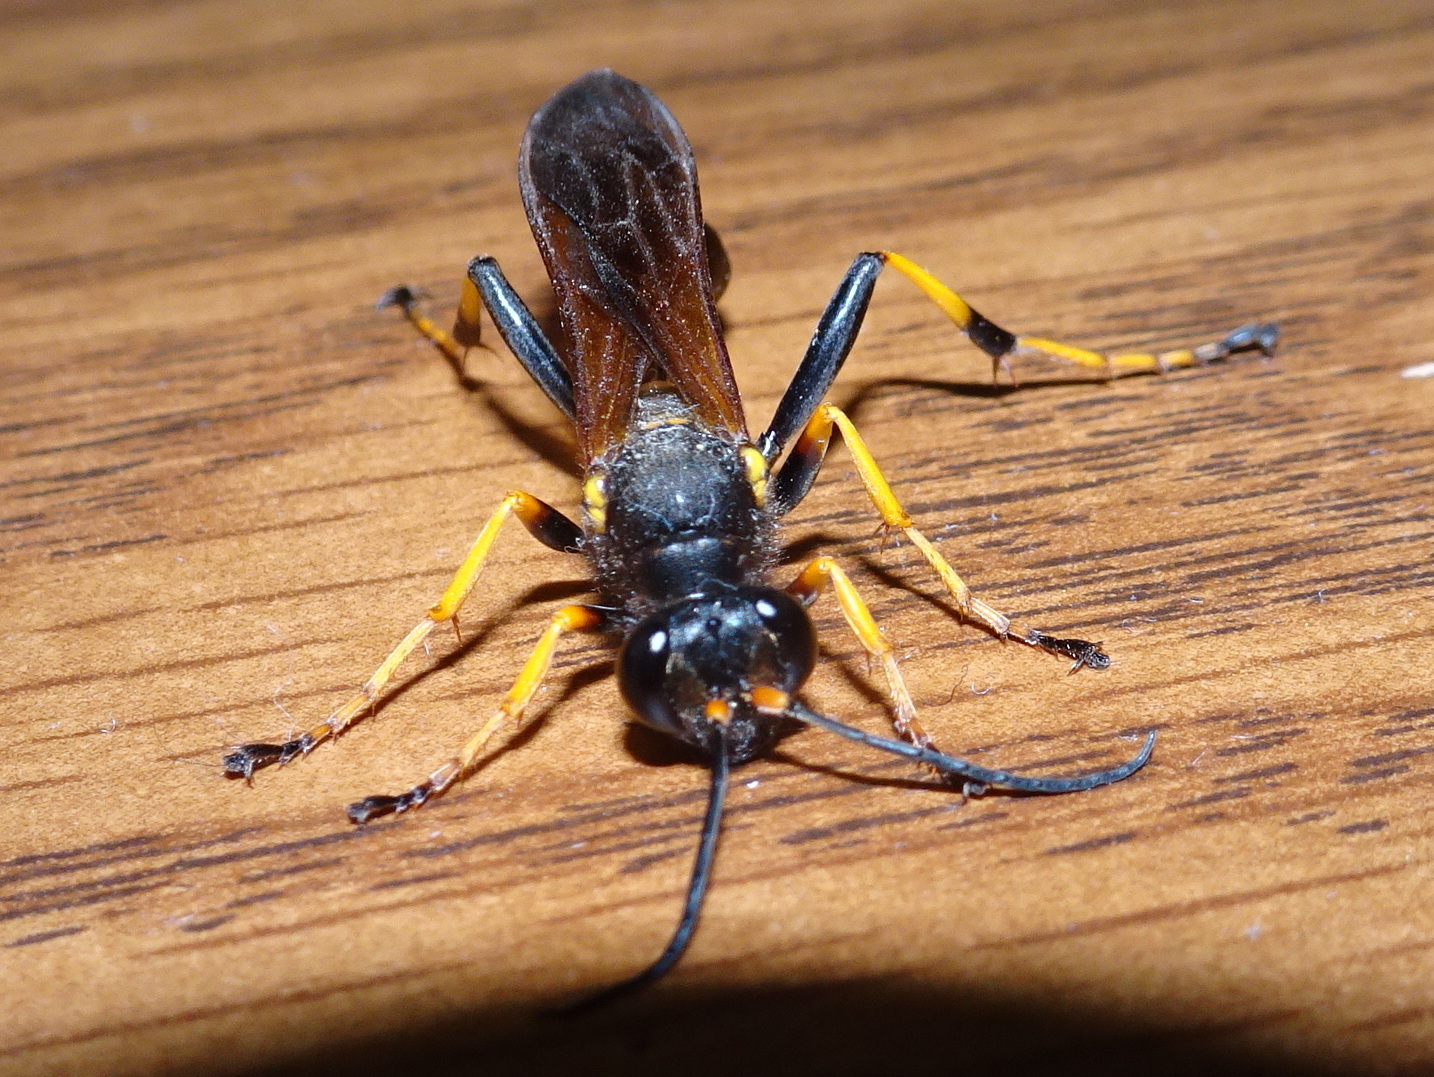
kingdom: Animalia
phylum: Arthropoda
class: Insecta
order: Hymenoptera
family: Sphecidae
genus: Sceliphron
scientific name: Sceliphron caementarium
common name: Mud dauber
